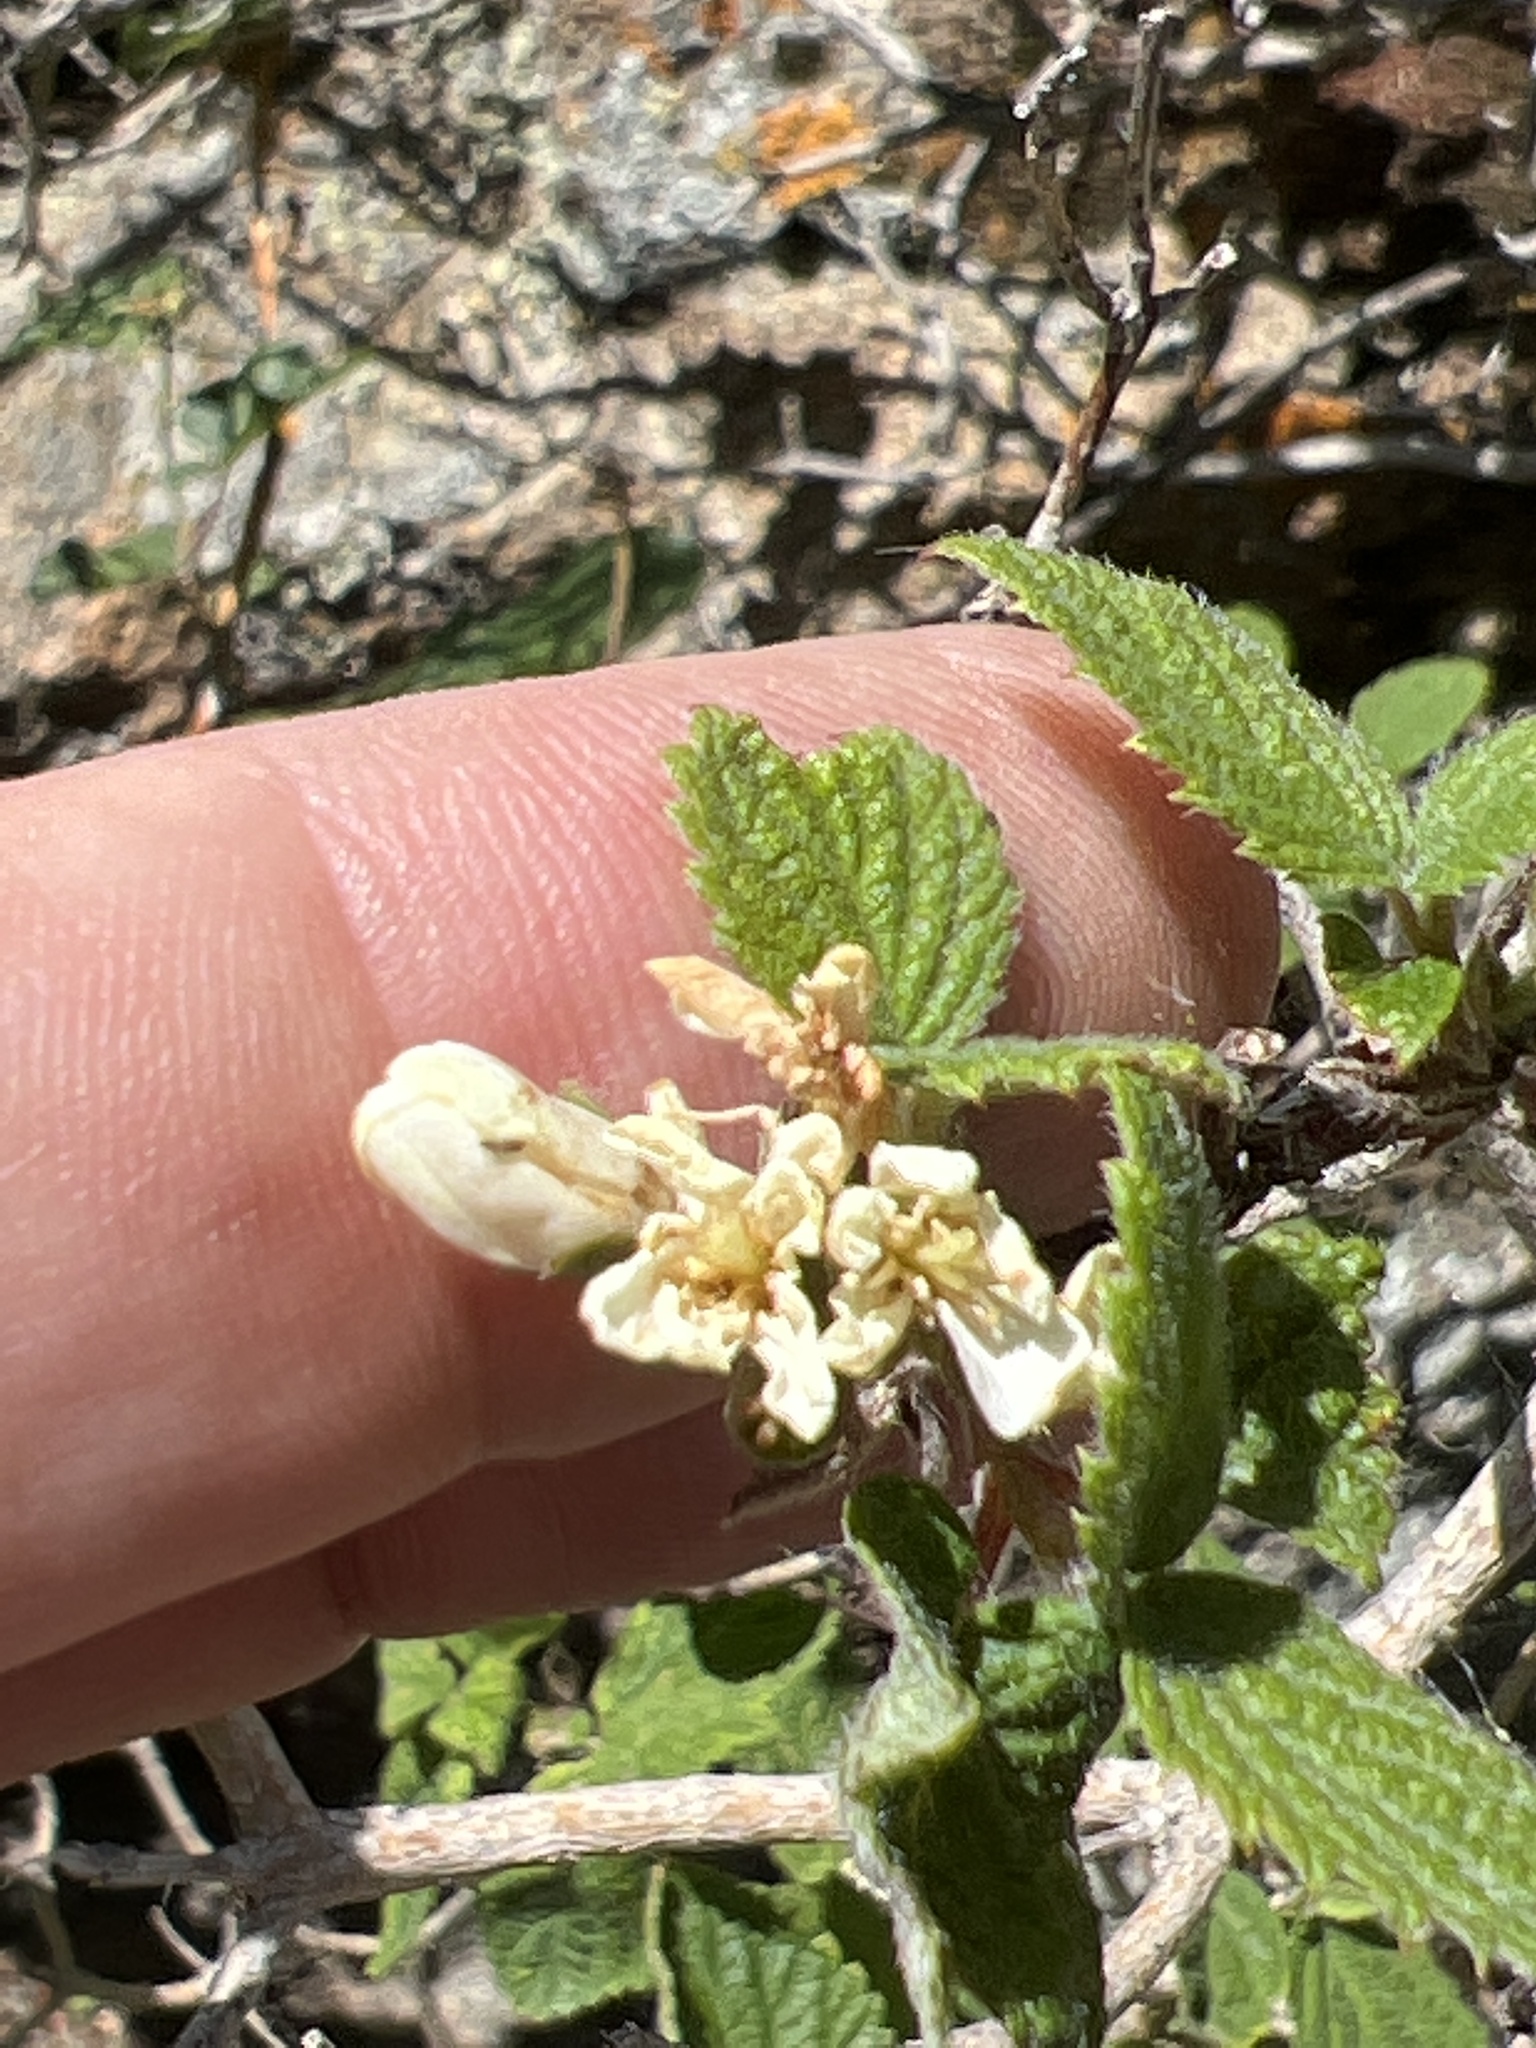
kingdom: Plantae
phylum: Tracheophyta
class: Magnoliopsida
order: Cornales
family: Hydrangeaceae
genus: Jamesia
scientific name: Jamesia americana
